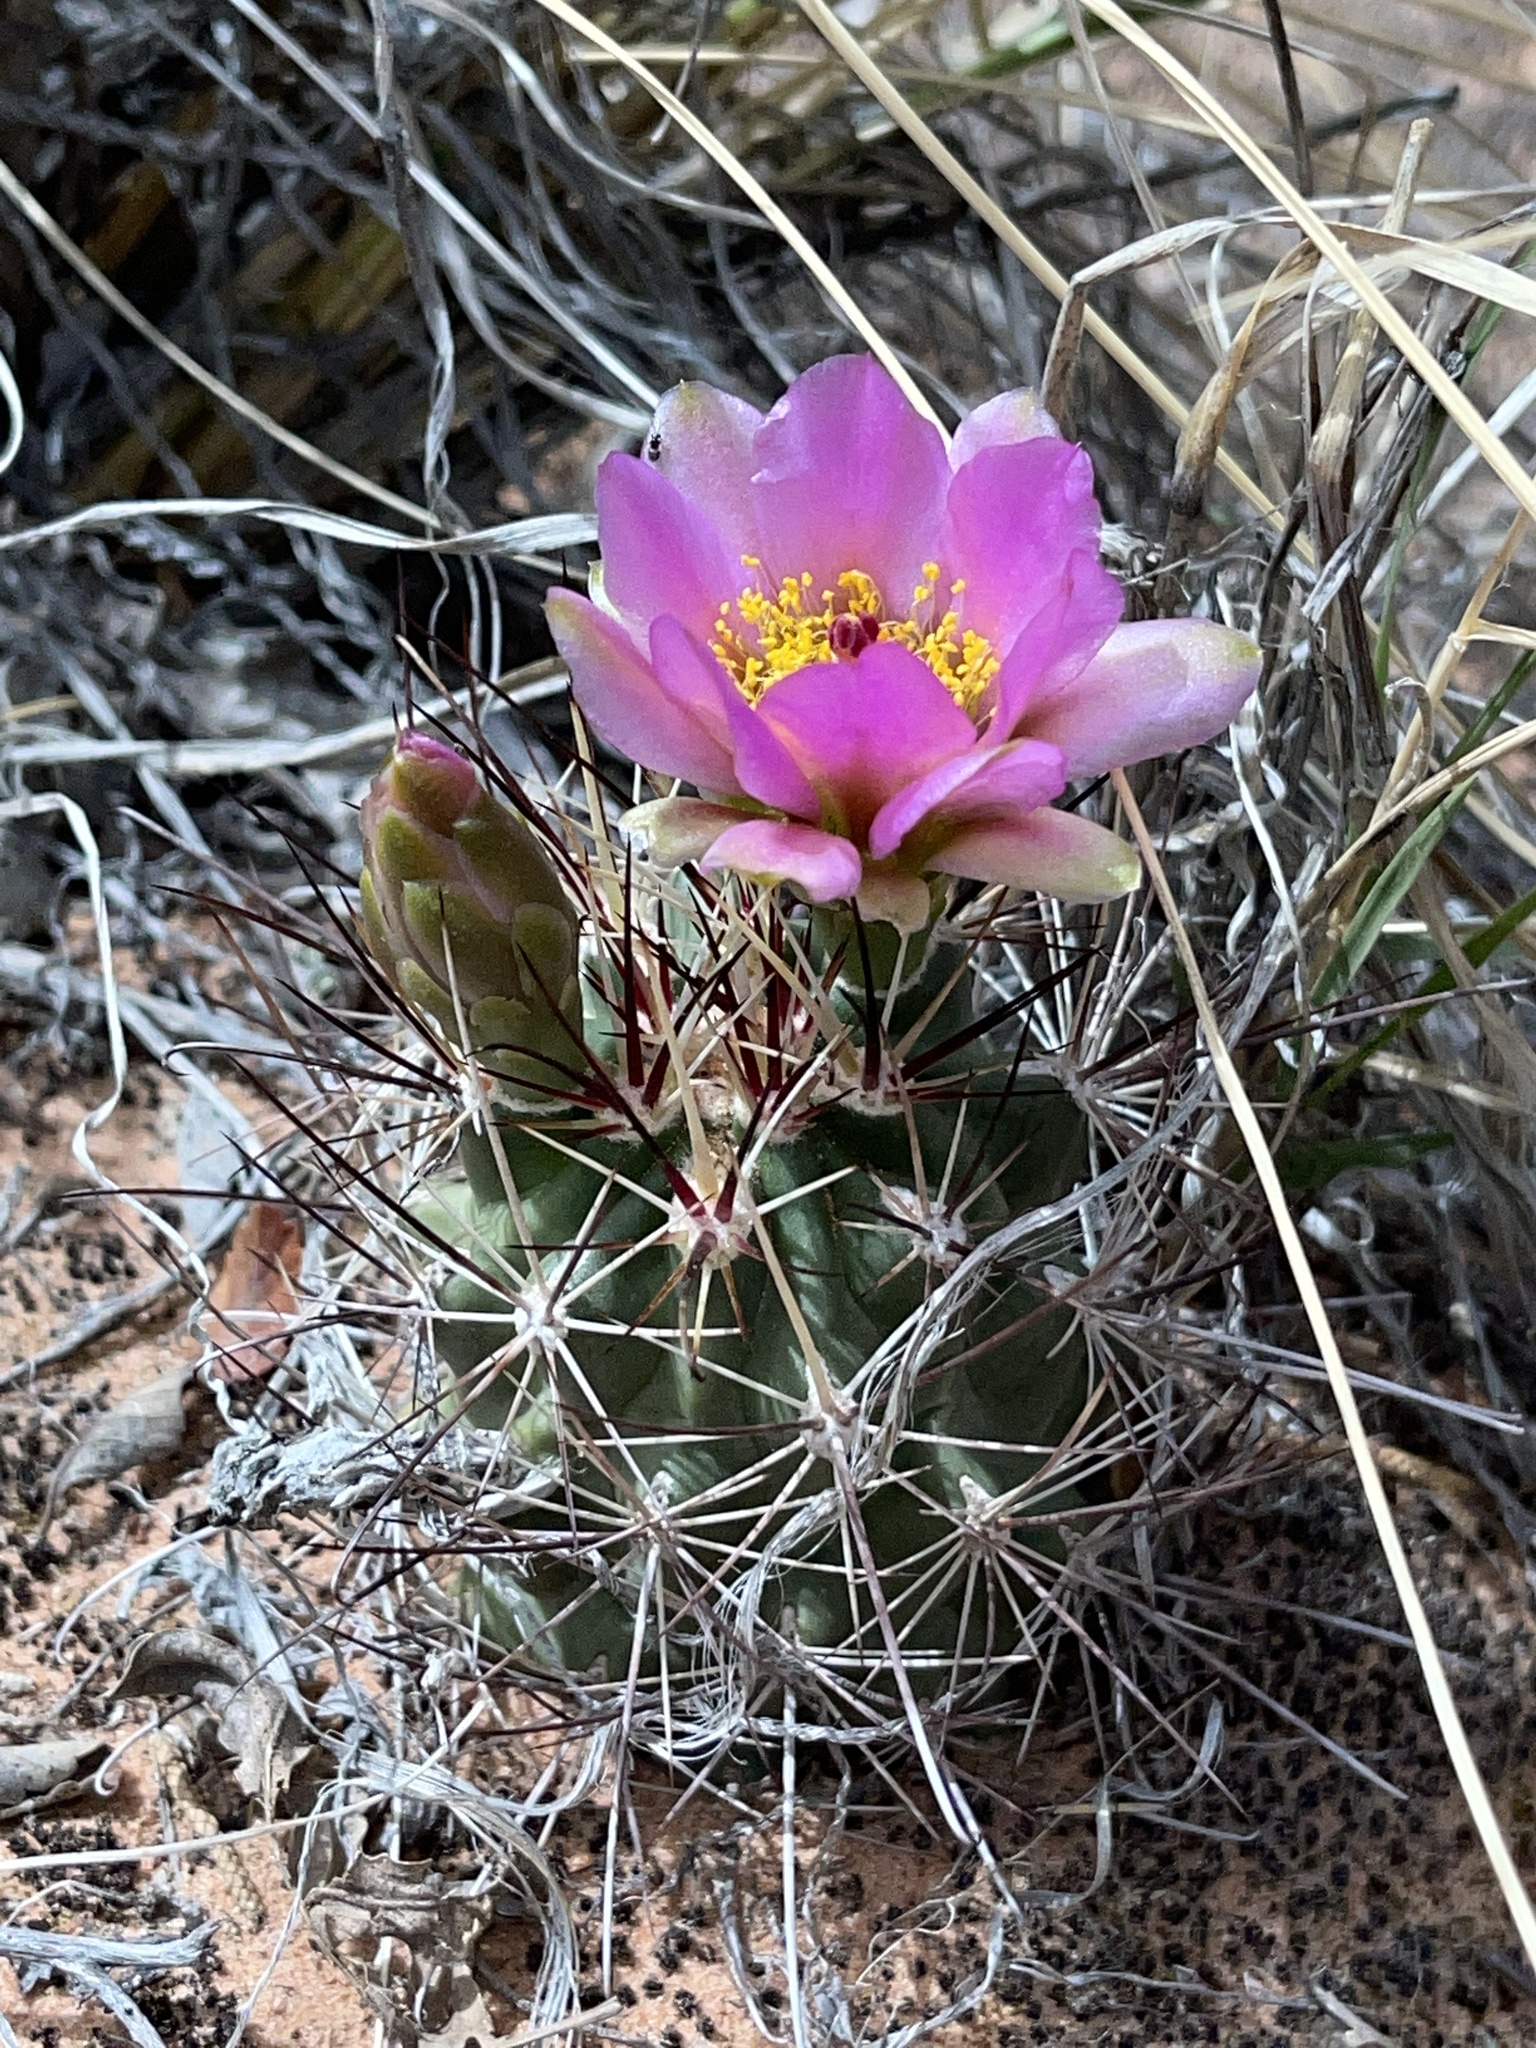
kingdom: Plantae
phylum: Tracheophyta
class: Magnoliopsida
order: Caryophyllales
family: Cactaceae
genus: Sclerocactus
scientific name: Sclerocactus parviflorus
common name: Small-flower fishhook cactus
